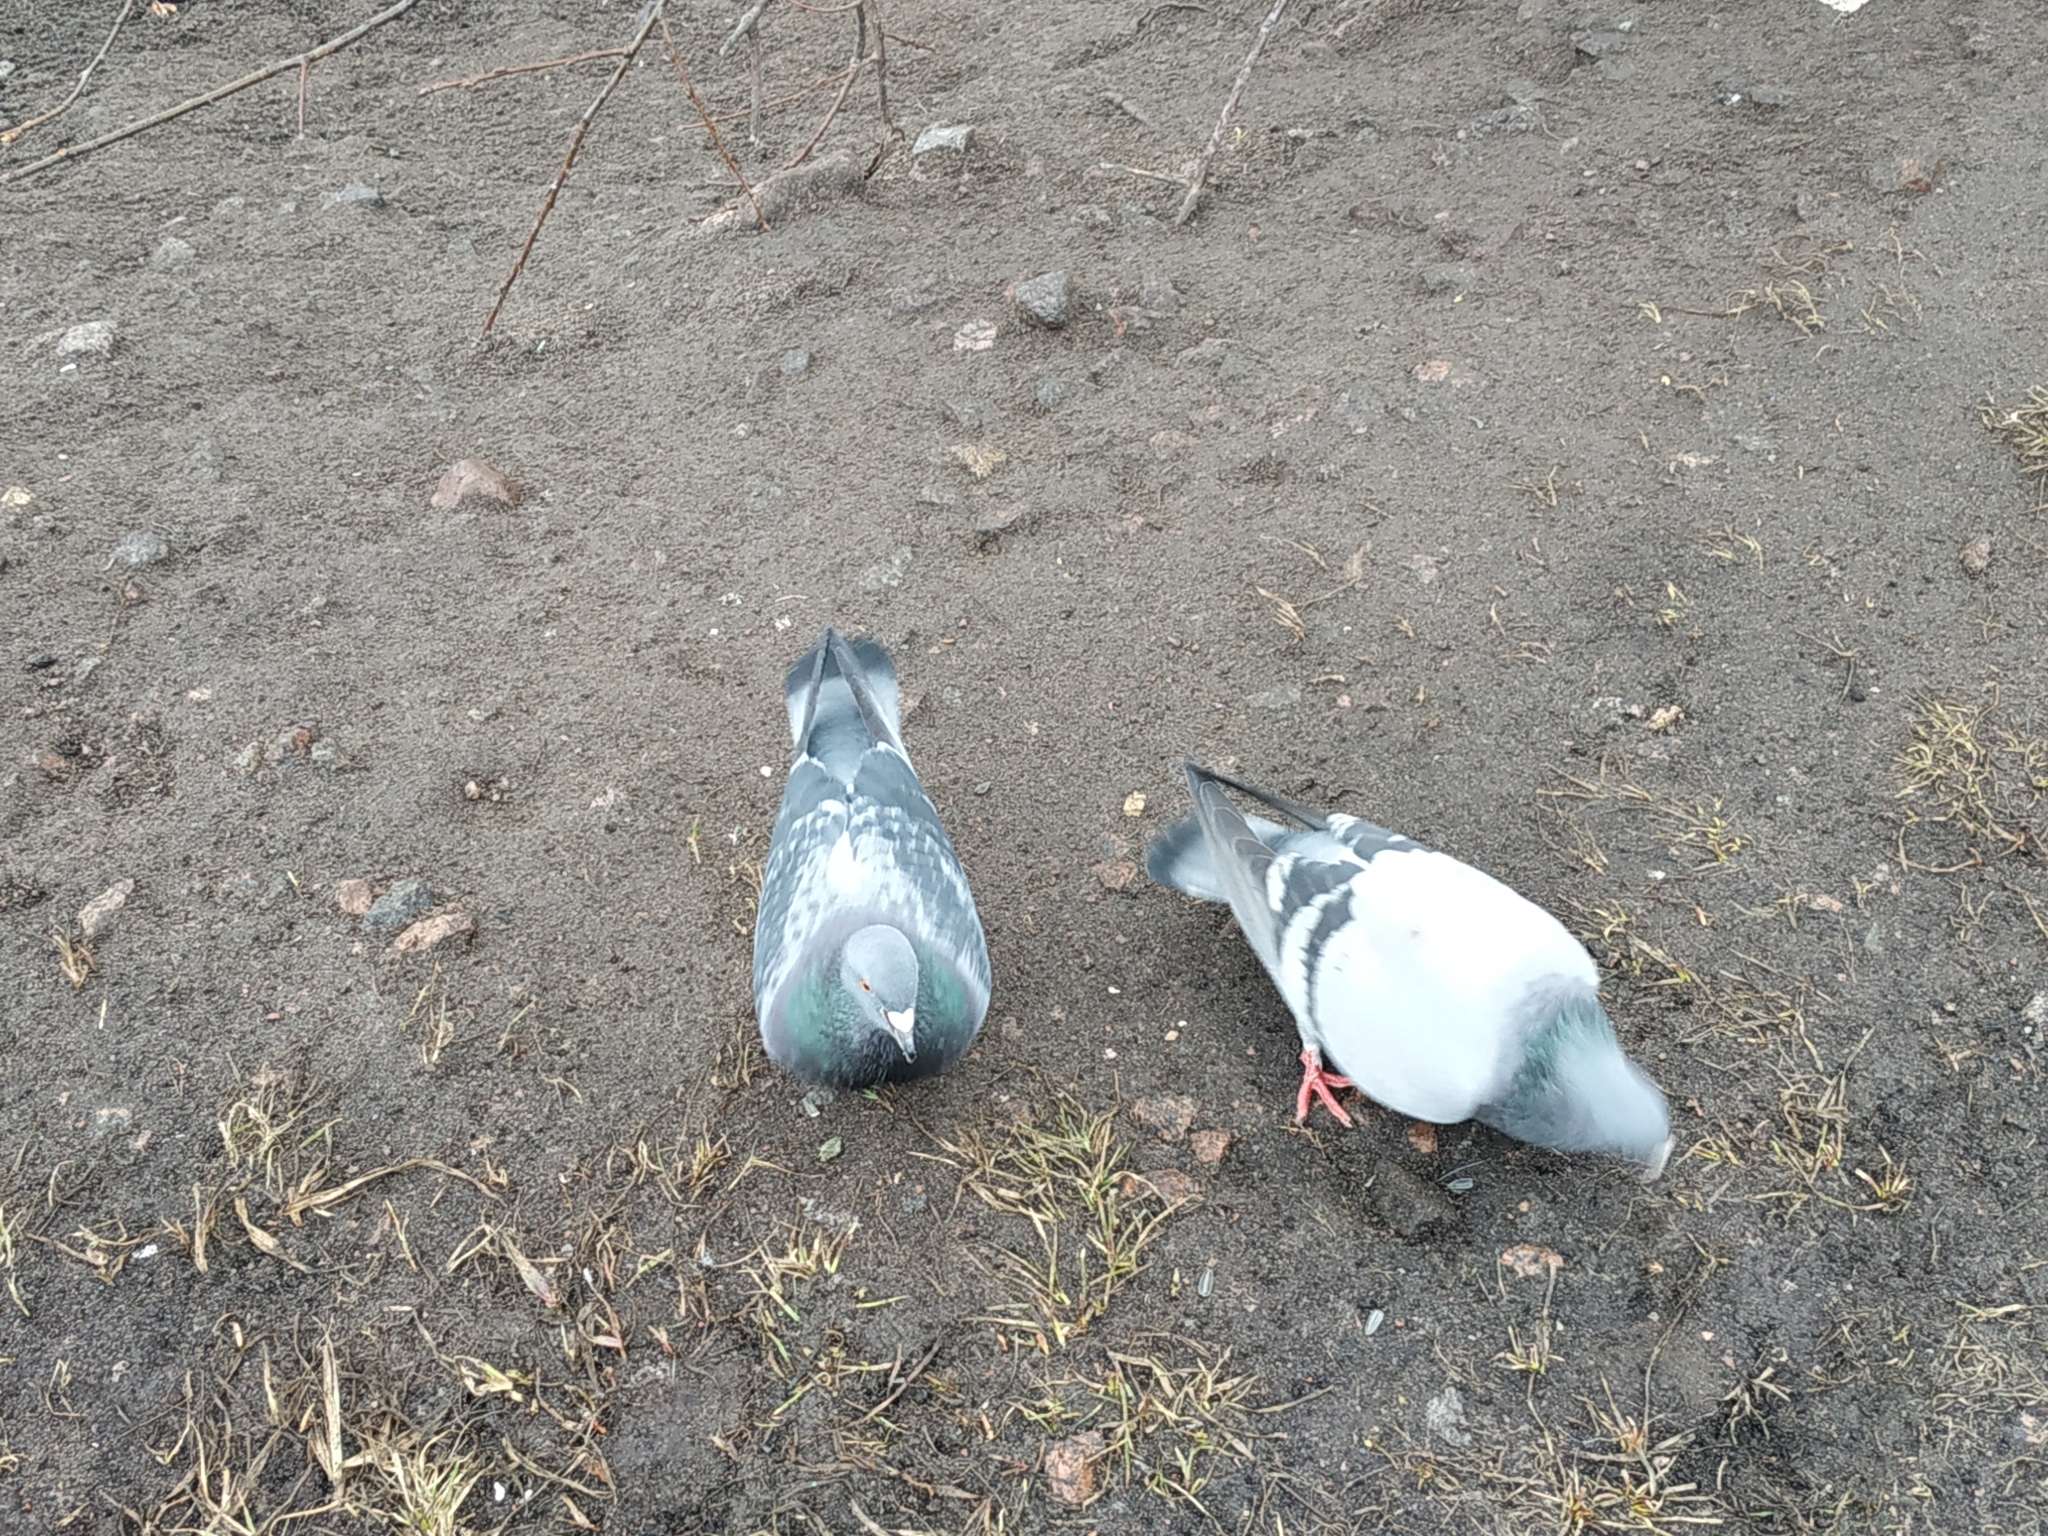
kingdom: Animalia
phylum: Chordata
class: Aves
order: Columbiformes
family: Columbidae
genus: Columba
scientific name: Columba livia
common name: Rock pigeon
